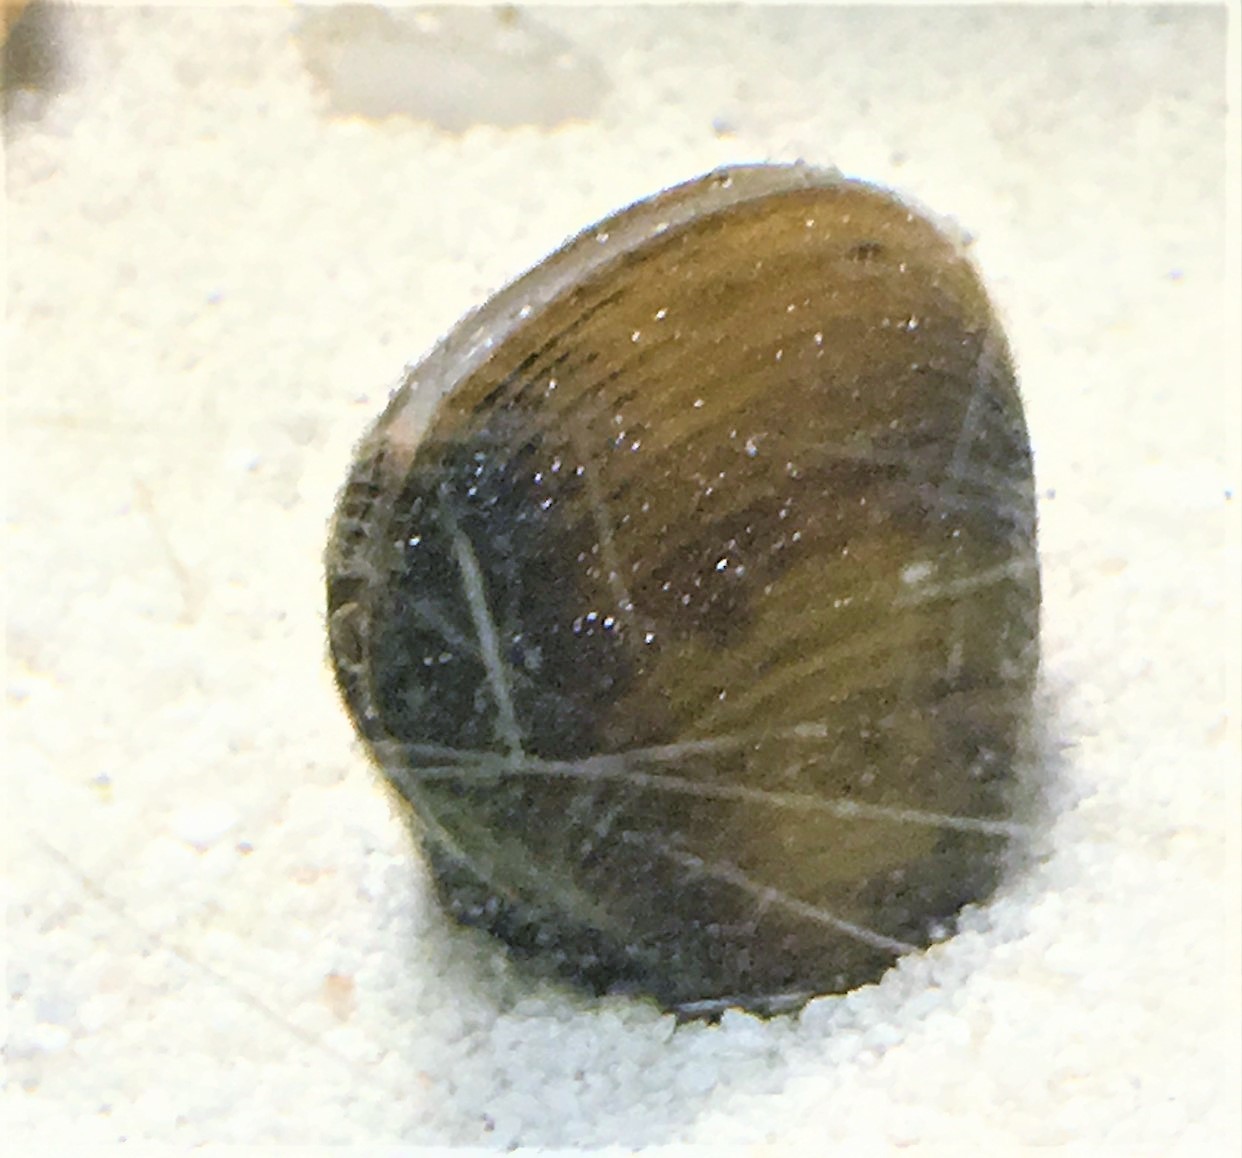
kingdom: Animalia
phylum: Mollusca
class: Bivalvia
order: Venerida
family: Cyrenidae
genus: Corbicula
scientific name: Corbicula fluminea
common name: Asian clam
